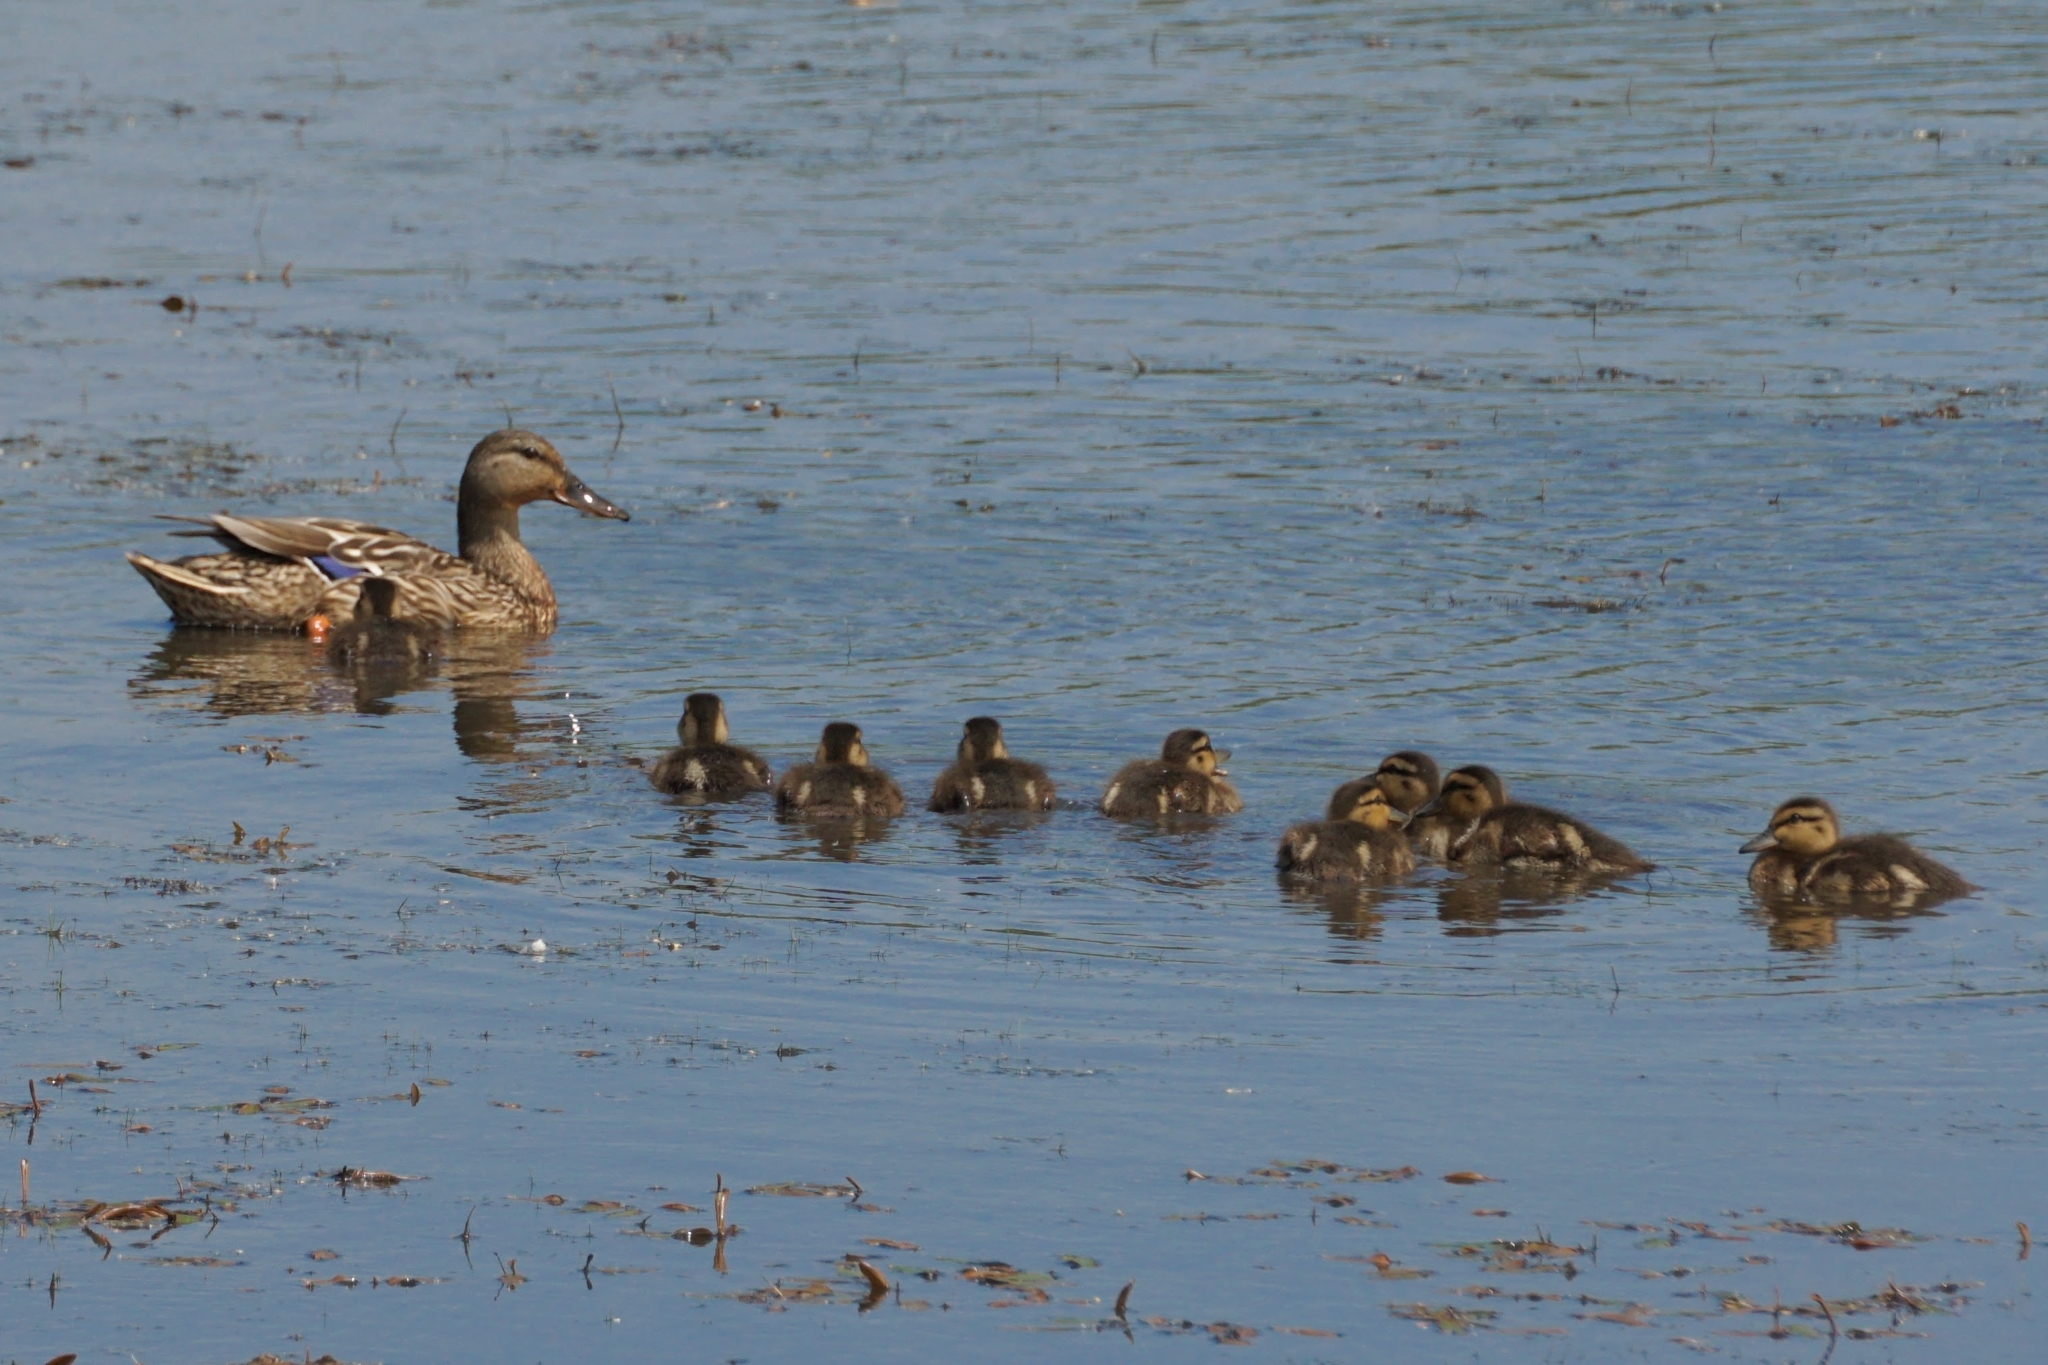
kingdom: Animalia
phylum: Chordata
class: Aves
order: Anseriformes
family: Anatidae
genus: Anas
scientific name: Anas platyrhynchos
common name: Mallard
